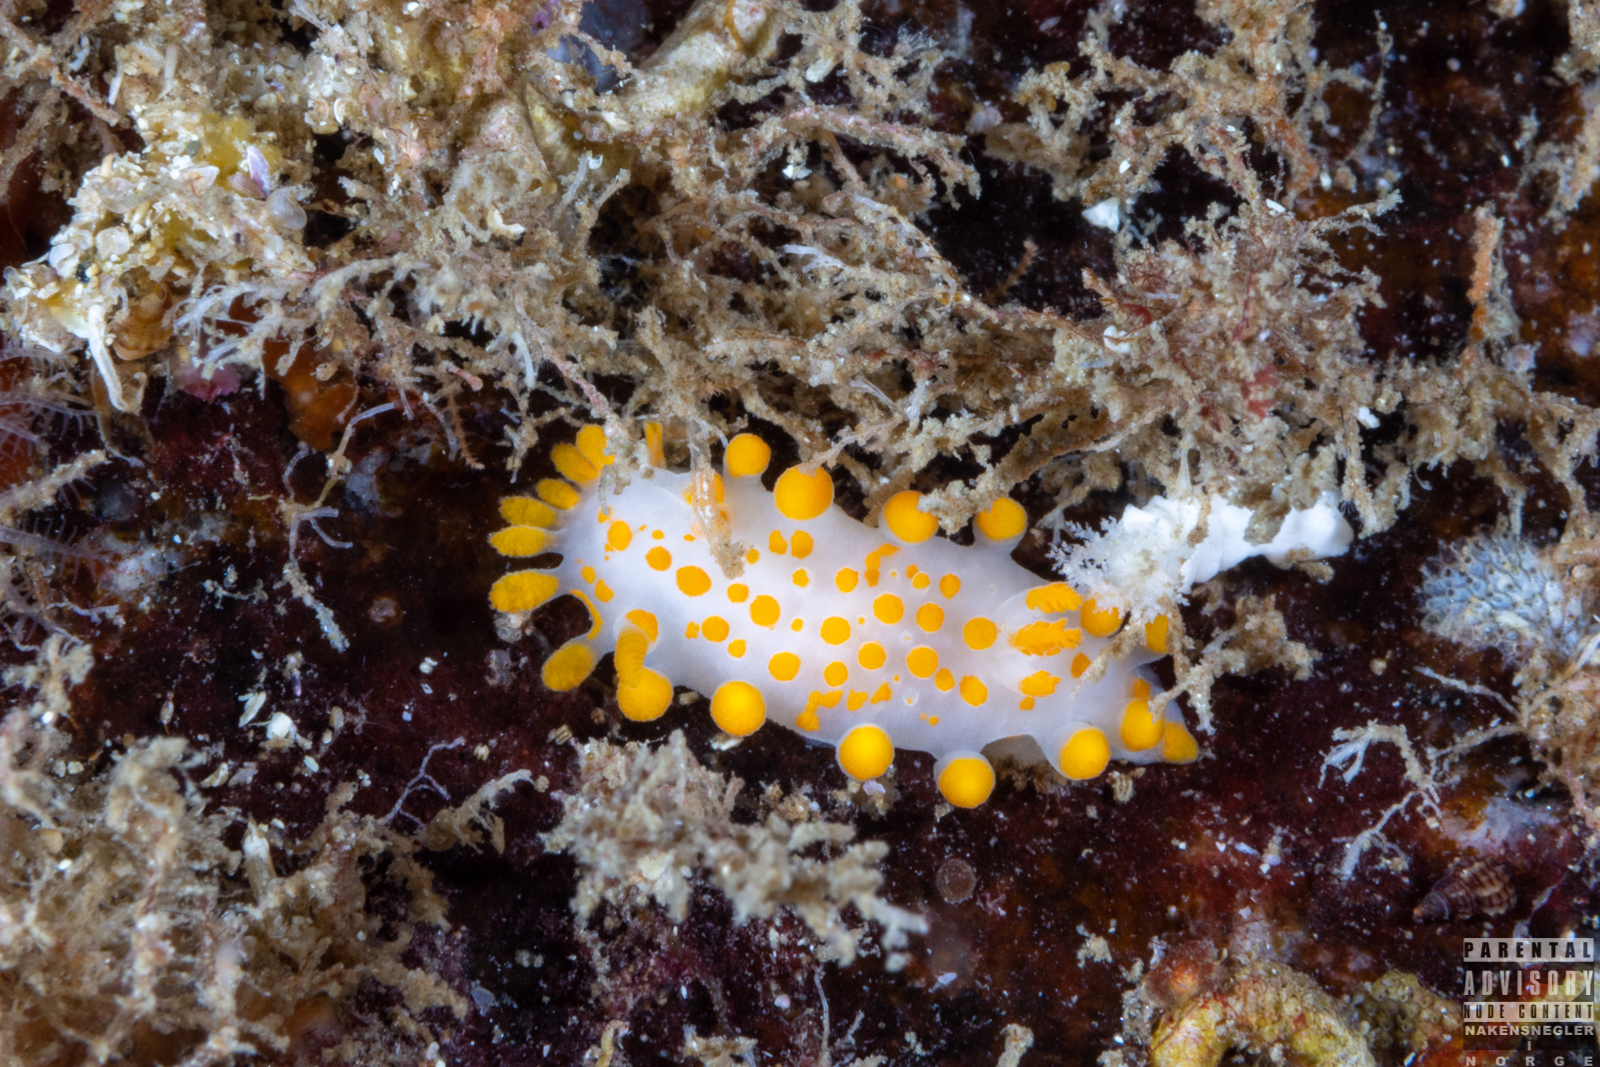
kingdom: Animalia
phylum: Mollusca
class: Gastropoda
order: Nudibranchia
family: Polyceridae
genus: Limacia
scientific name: Limacia clavigera
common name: Orange-clubbed sea slug
